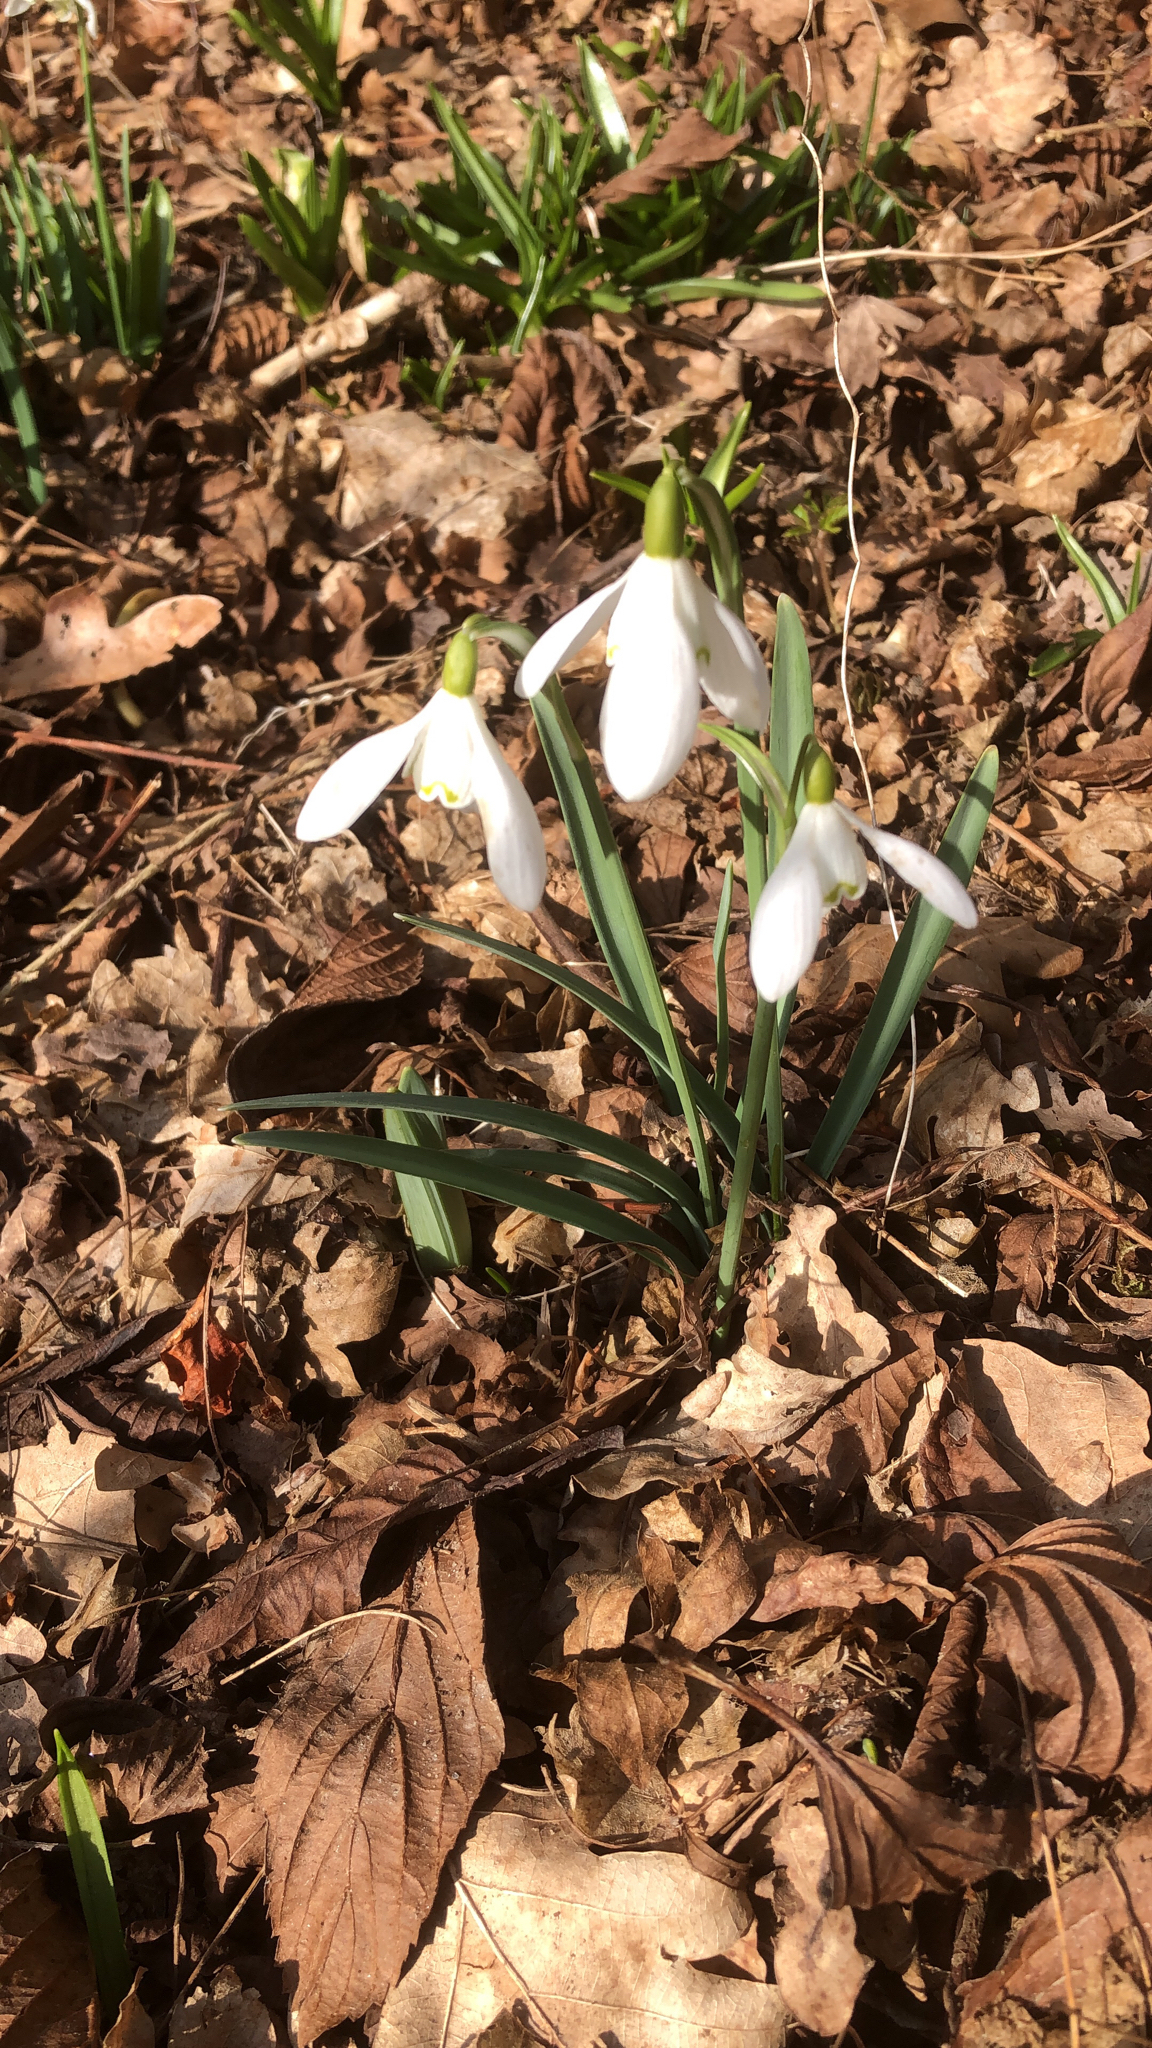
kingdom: Plantae
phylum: Tracheophyta
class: Liliopsida
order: Asparagales
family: Amaryllidaceae
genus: Galanthus
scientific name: Galanthus nivalis
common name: Snowdrop
